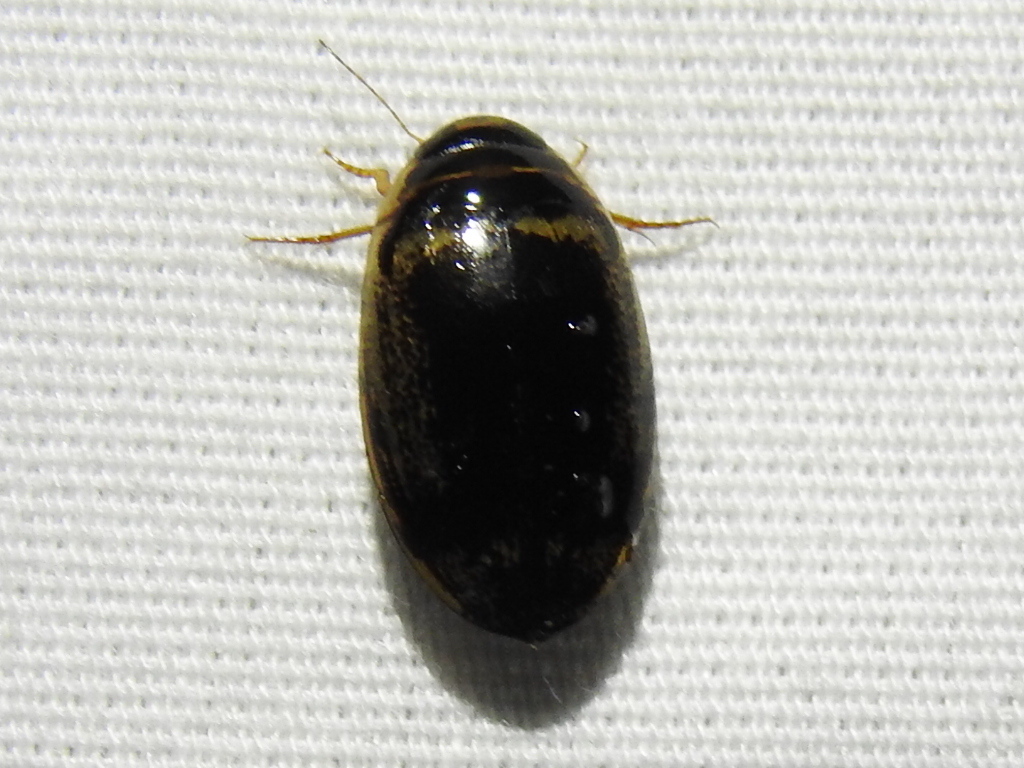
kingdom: Animalia
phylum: Arthropoda
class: Insecta
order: Coleoptera
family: Dytiscidae
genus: Thermonectus
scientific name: Thermonectus basillaris
